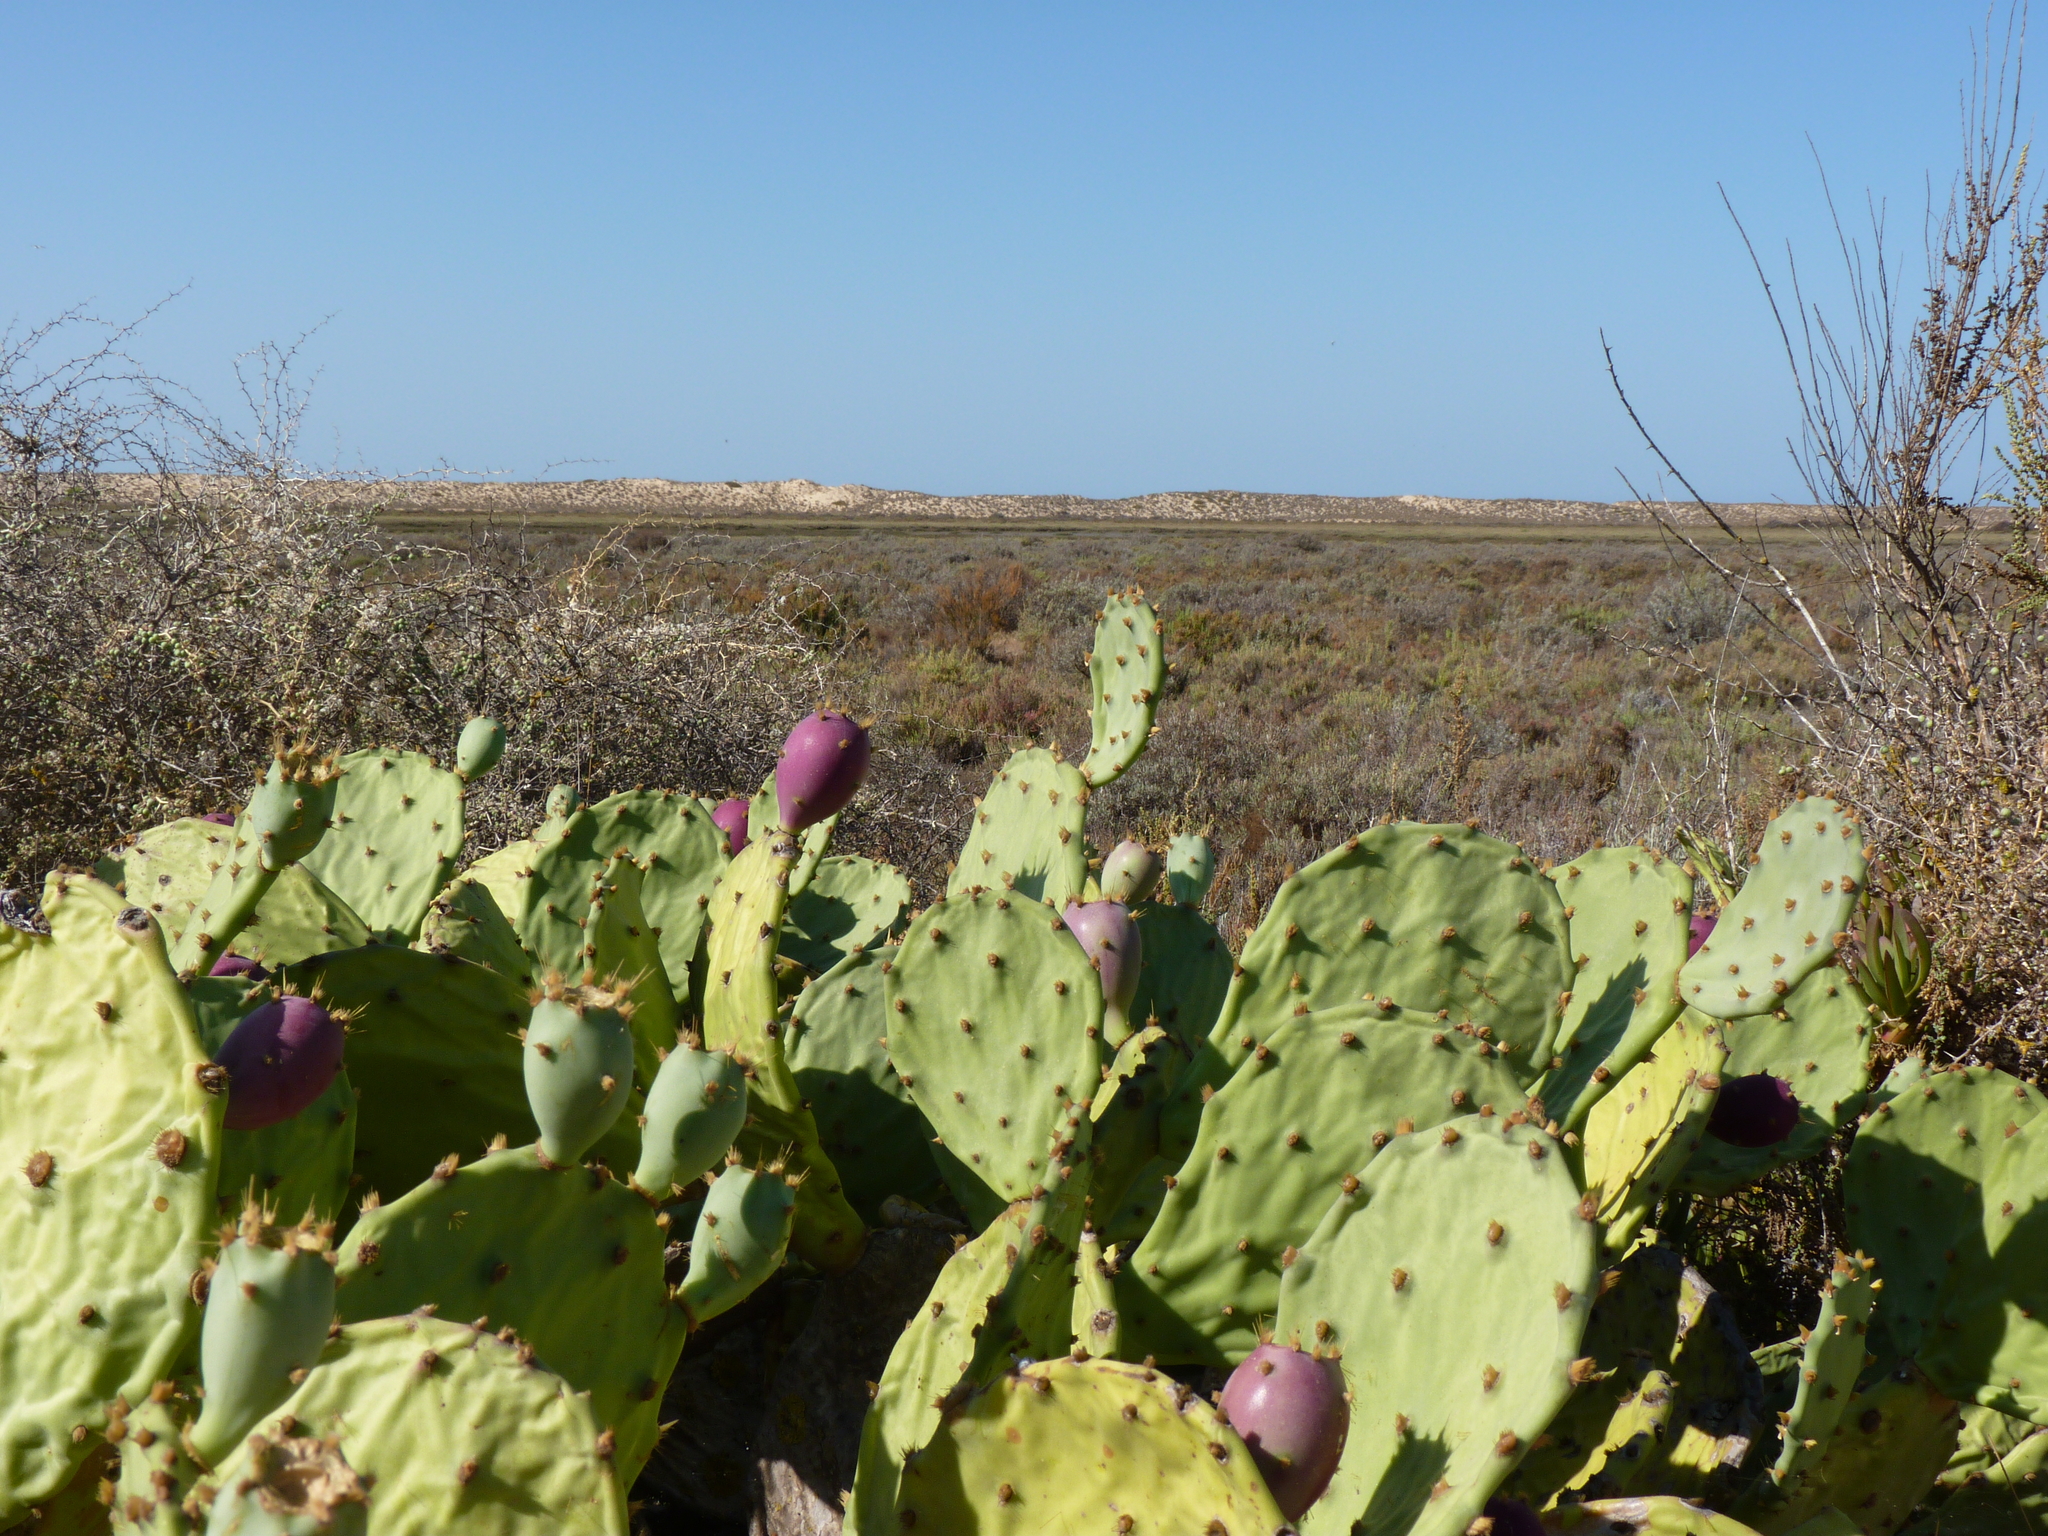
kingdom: Plantae
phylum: Tracheophyta
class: Magnoliopsida
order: Caryophyllales
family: Cactaceae
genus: Opuntia
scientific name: Opuntia anahuacensis
